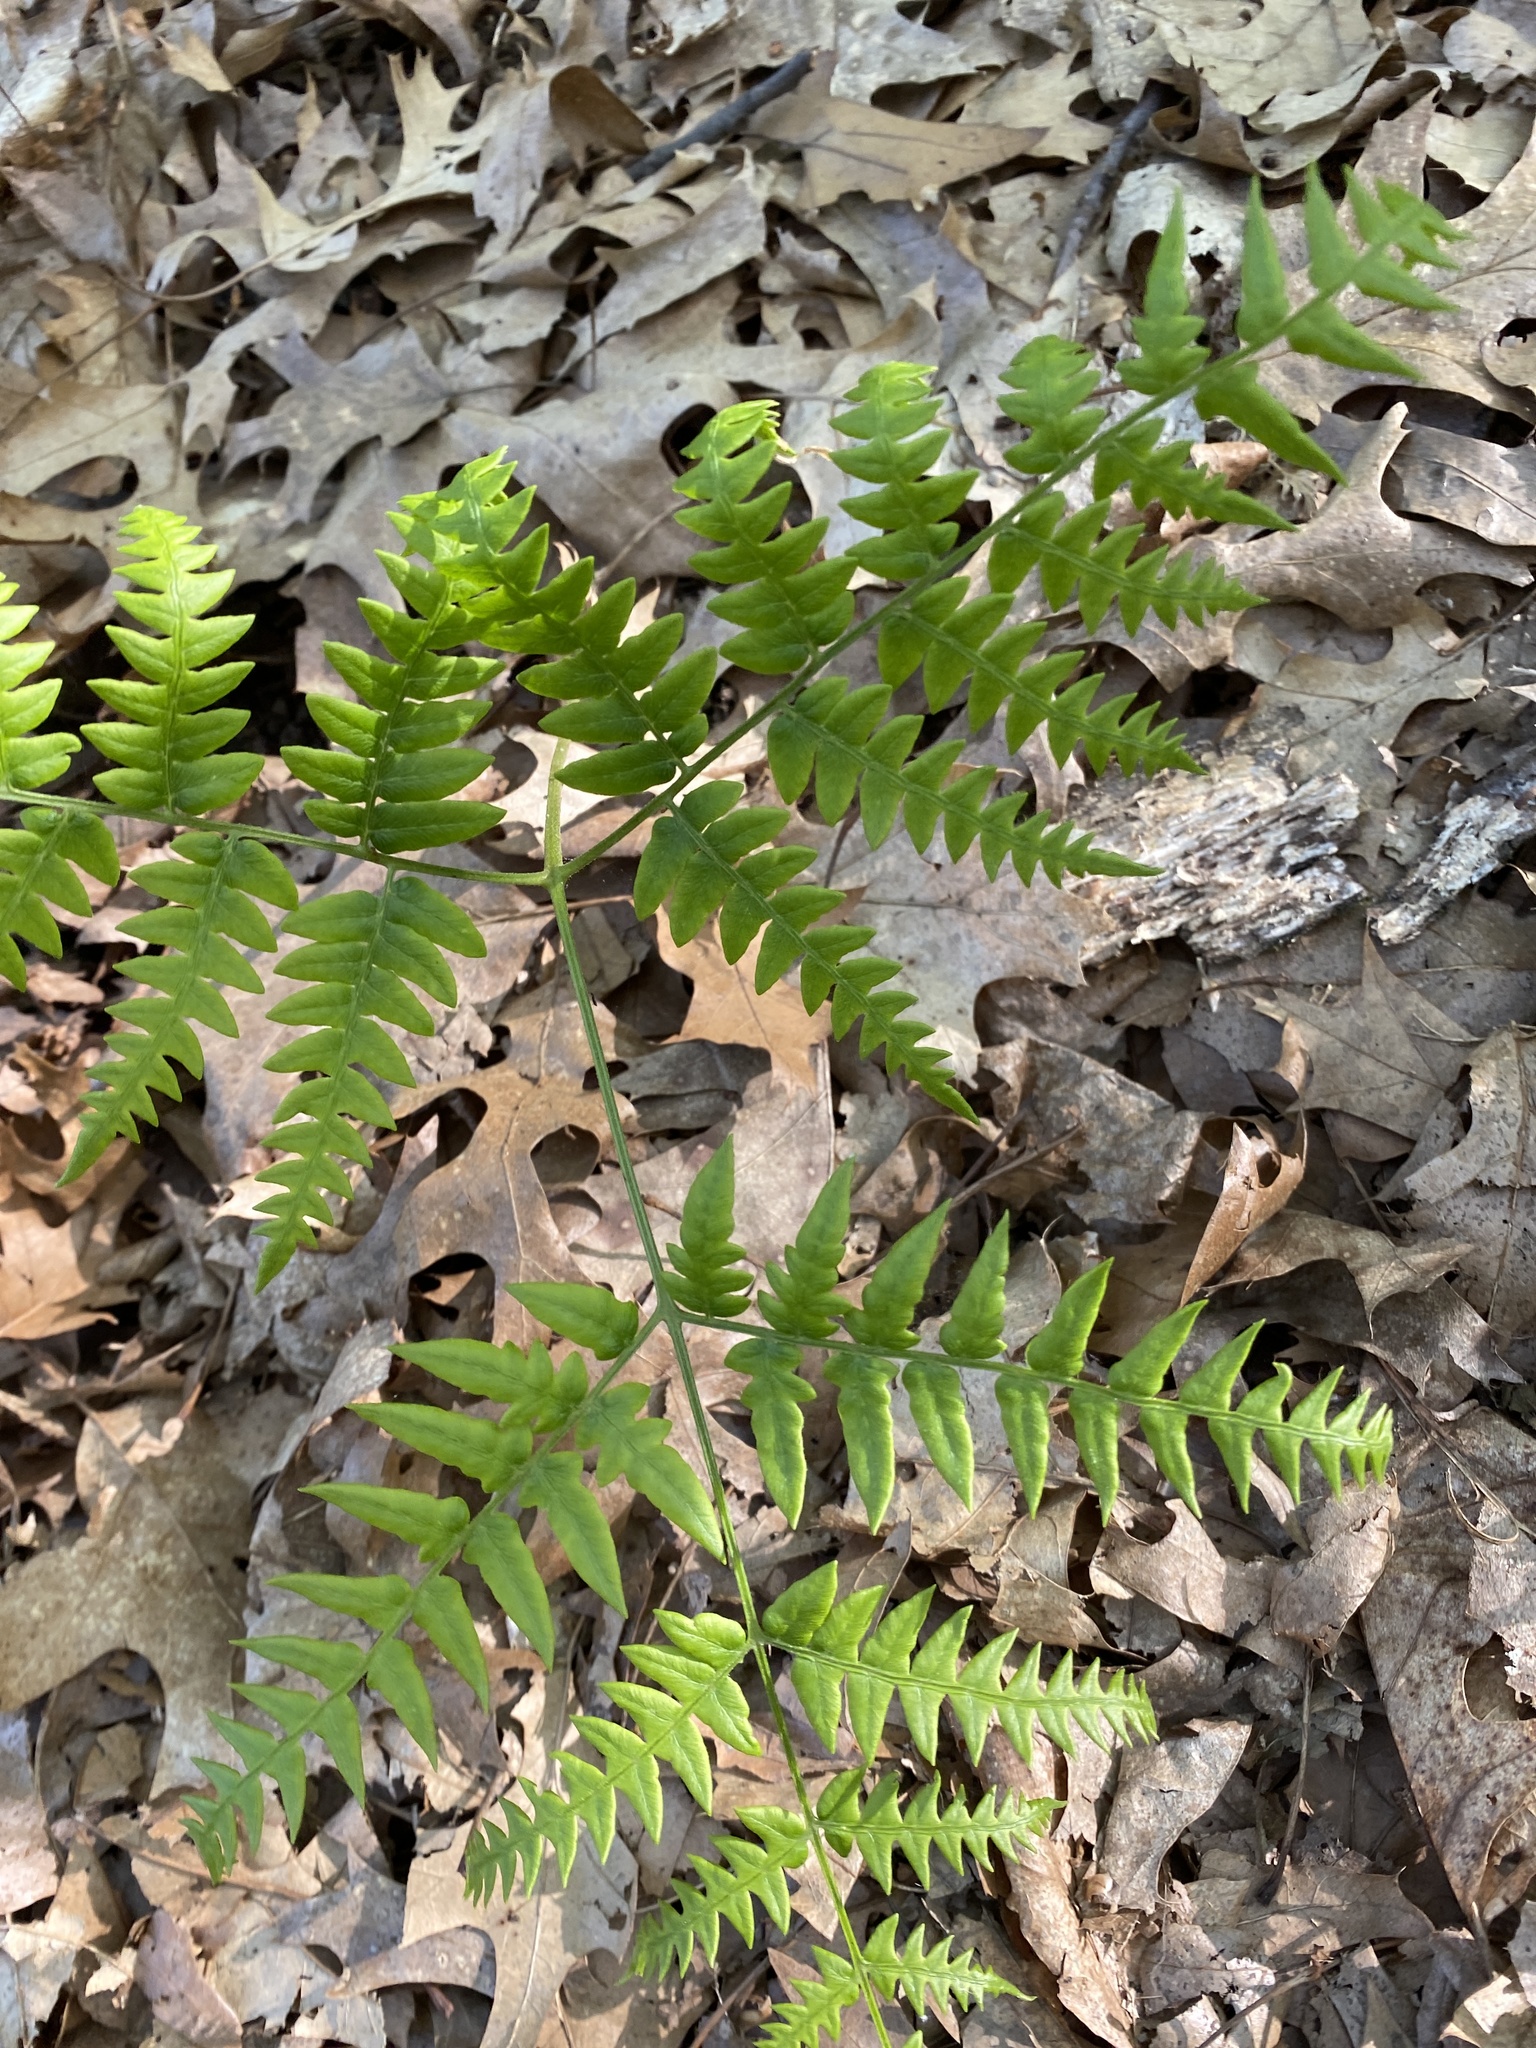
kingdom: Plantae
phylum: Tracheophyta
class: Polypodiopsida
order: Polypodiales
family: Dennstaedtiaceae
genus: Pteridium
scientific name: Pteridium aquilinum
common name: Bracken
